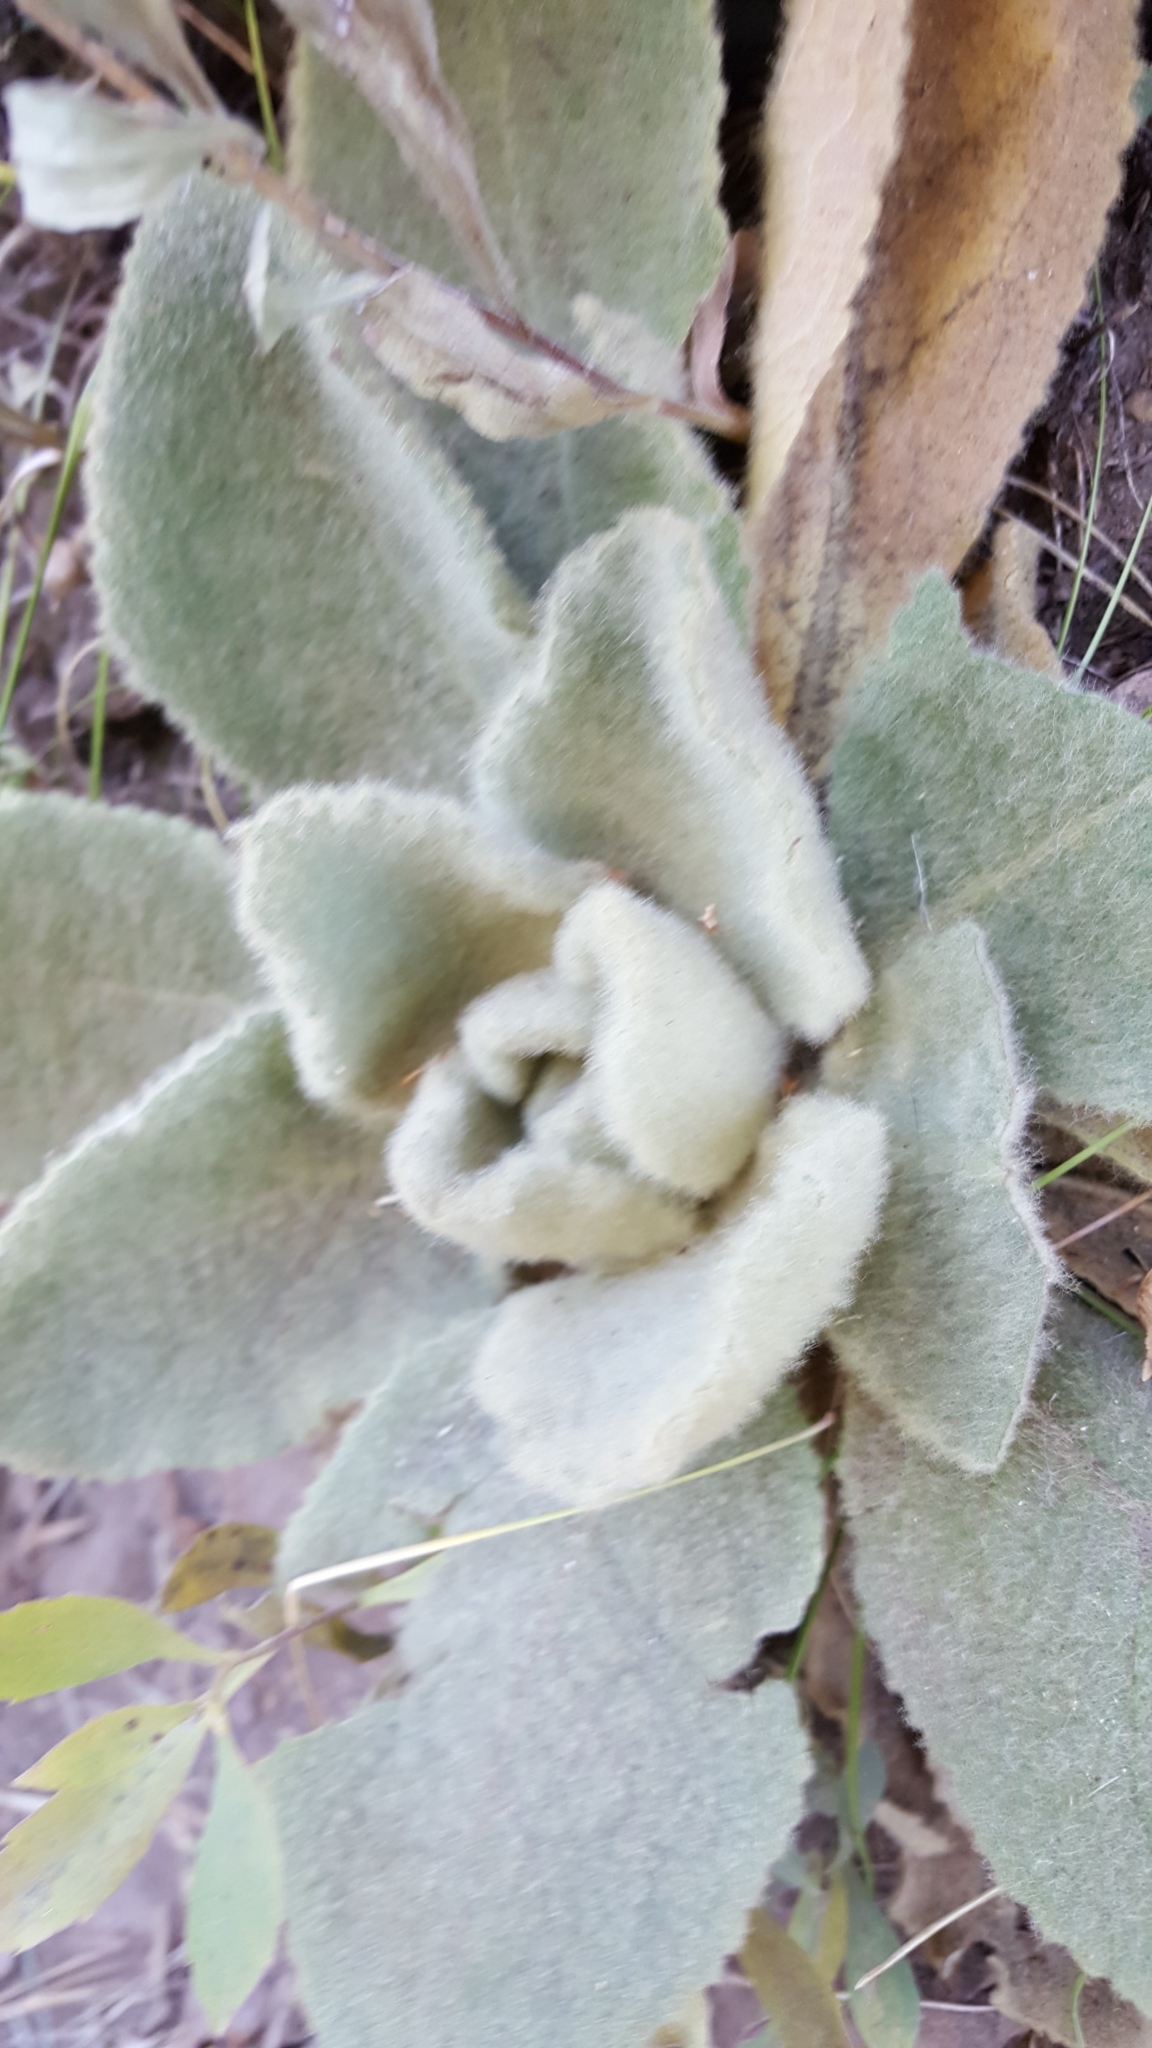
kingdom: Plantae
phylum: Tracheophyta
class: Magnoliopsida
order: Lamiales
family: Scrophulariaceae
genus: Verbascum
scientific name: Verbascum thapsus
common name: Common mullein
